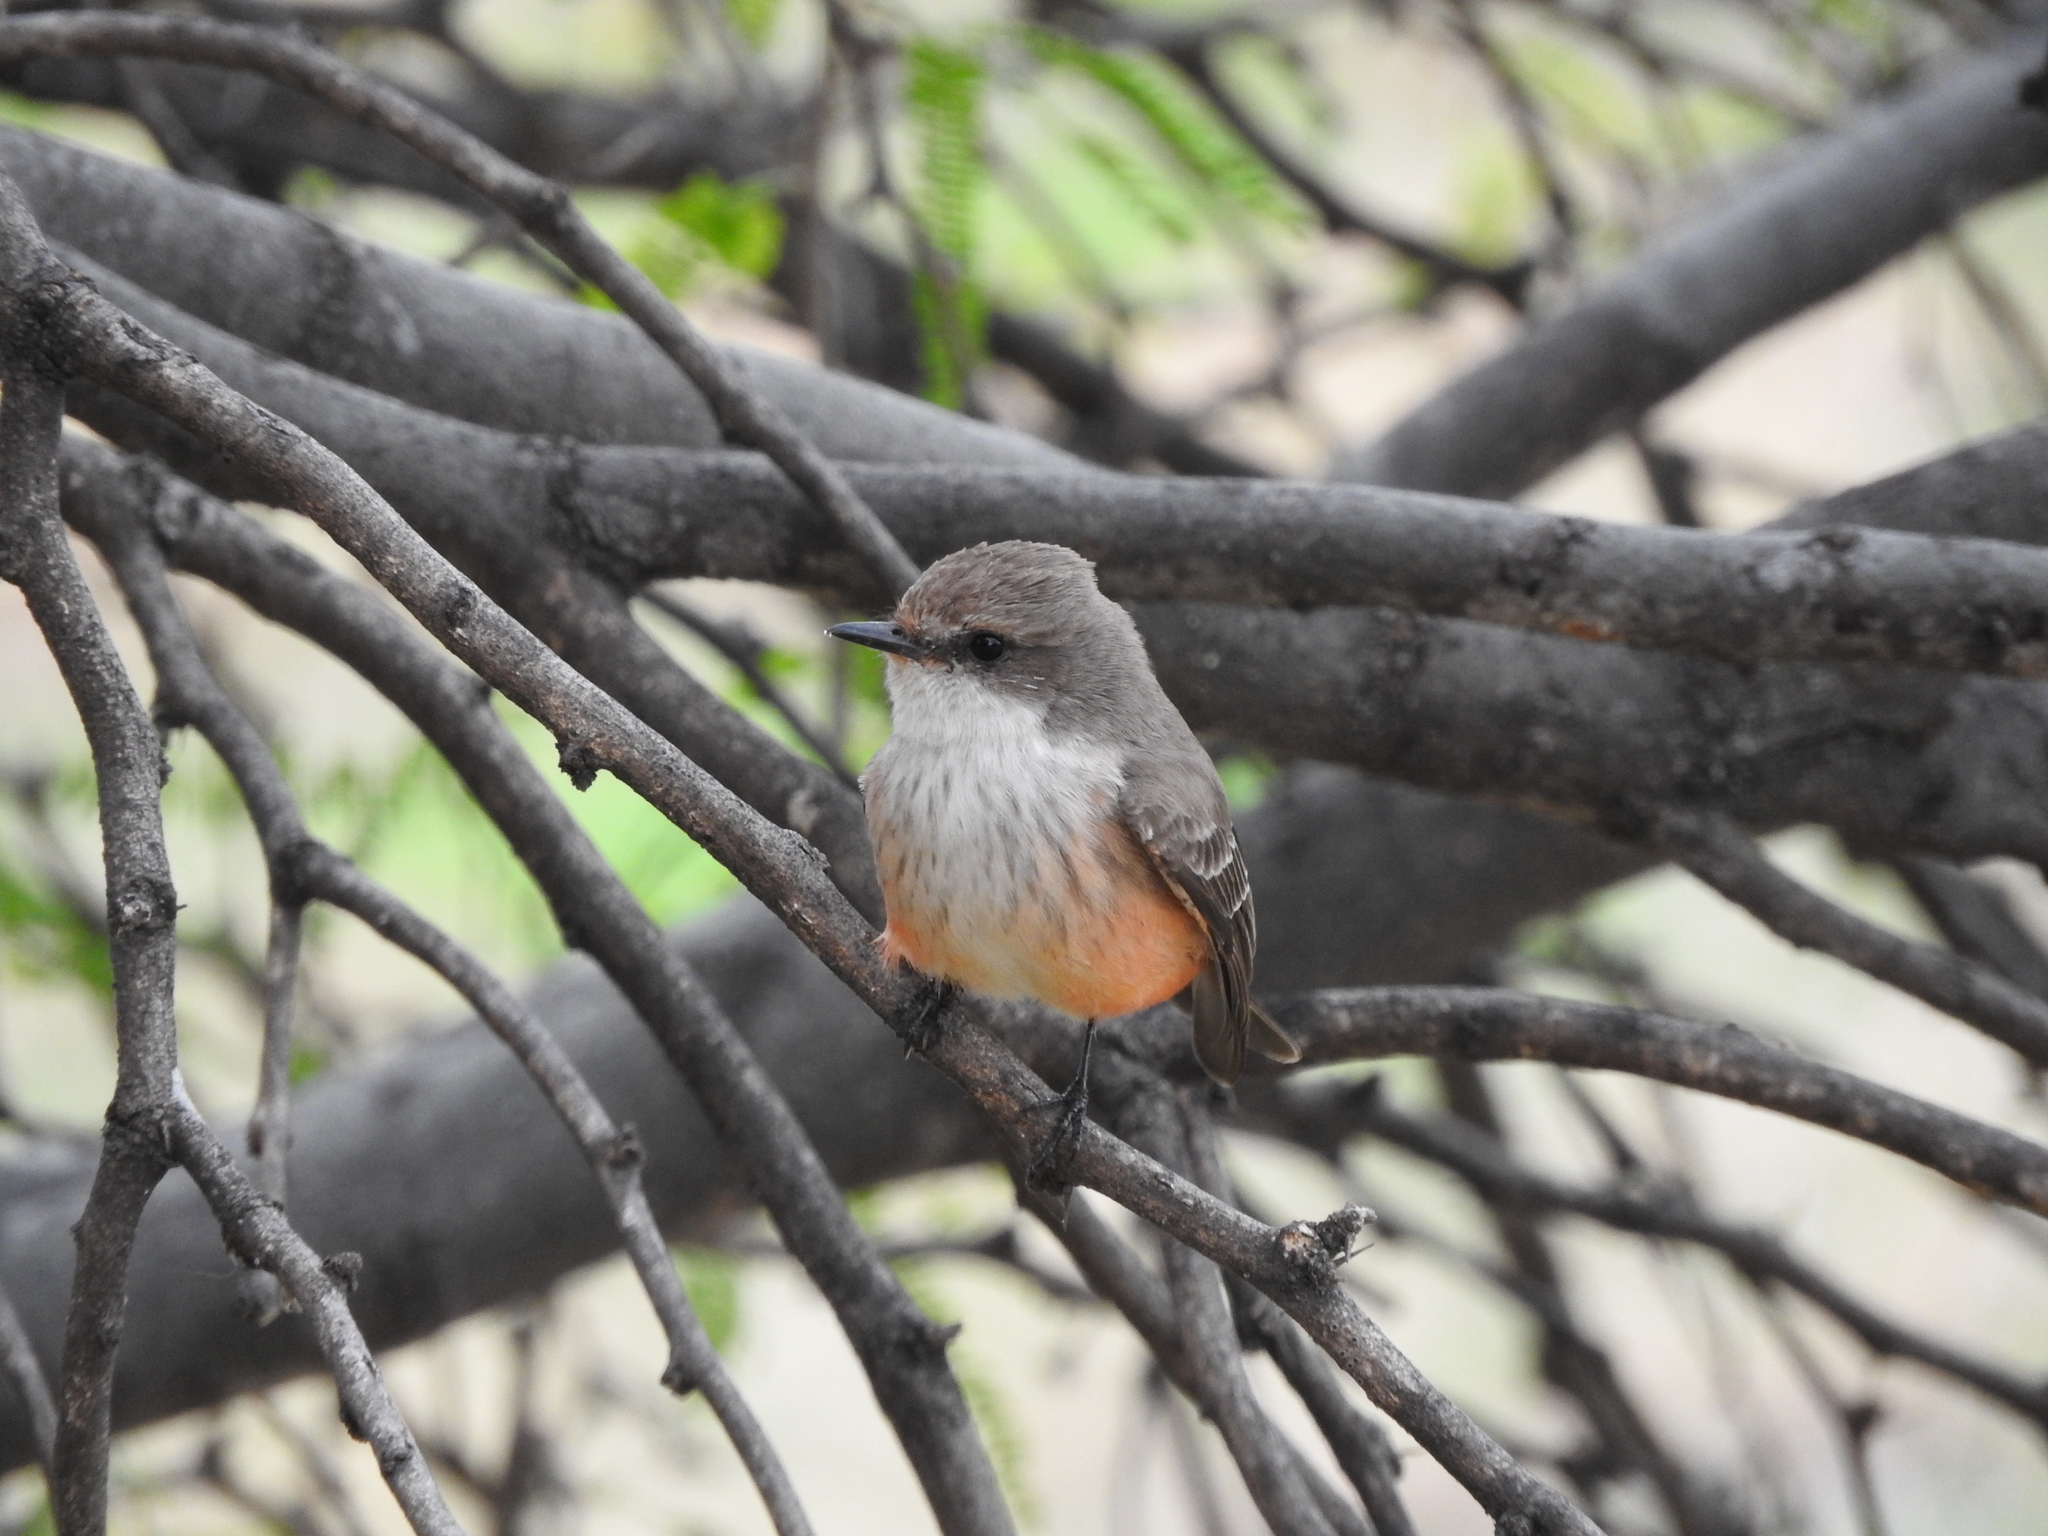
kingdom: Animalia
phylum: Chordata
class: Aves
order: Passeriformes
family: Tyrannidae
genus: Pyrocephalus
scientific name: Pyrocephalus rubinus
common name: Vermilion flycatcher
